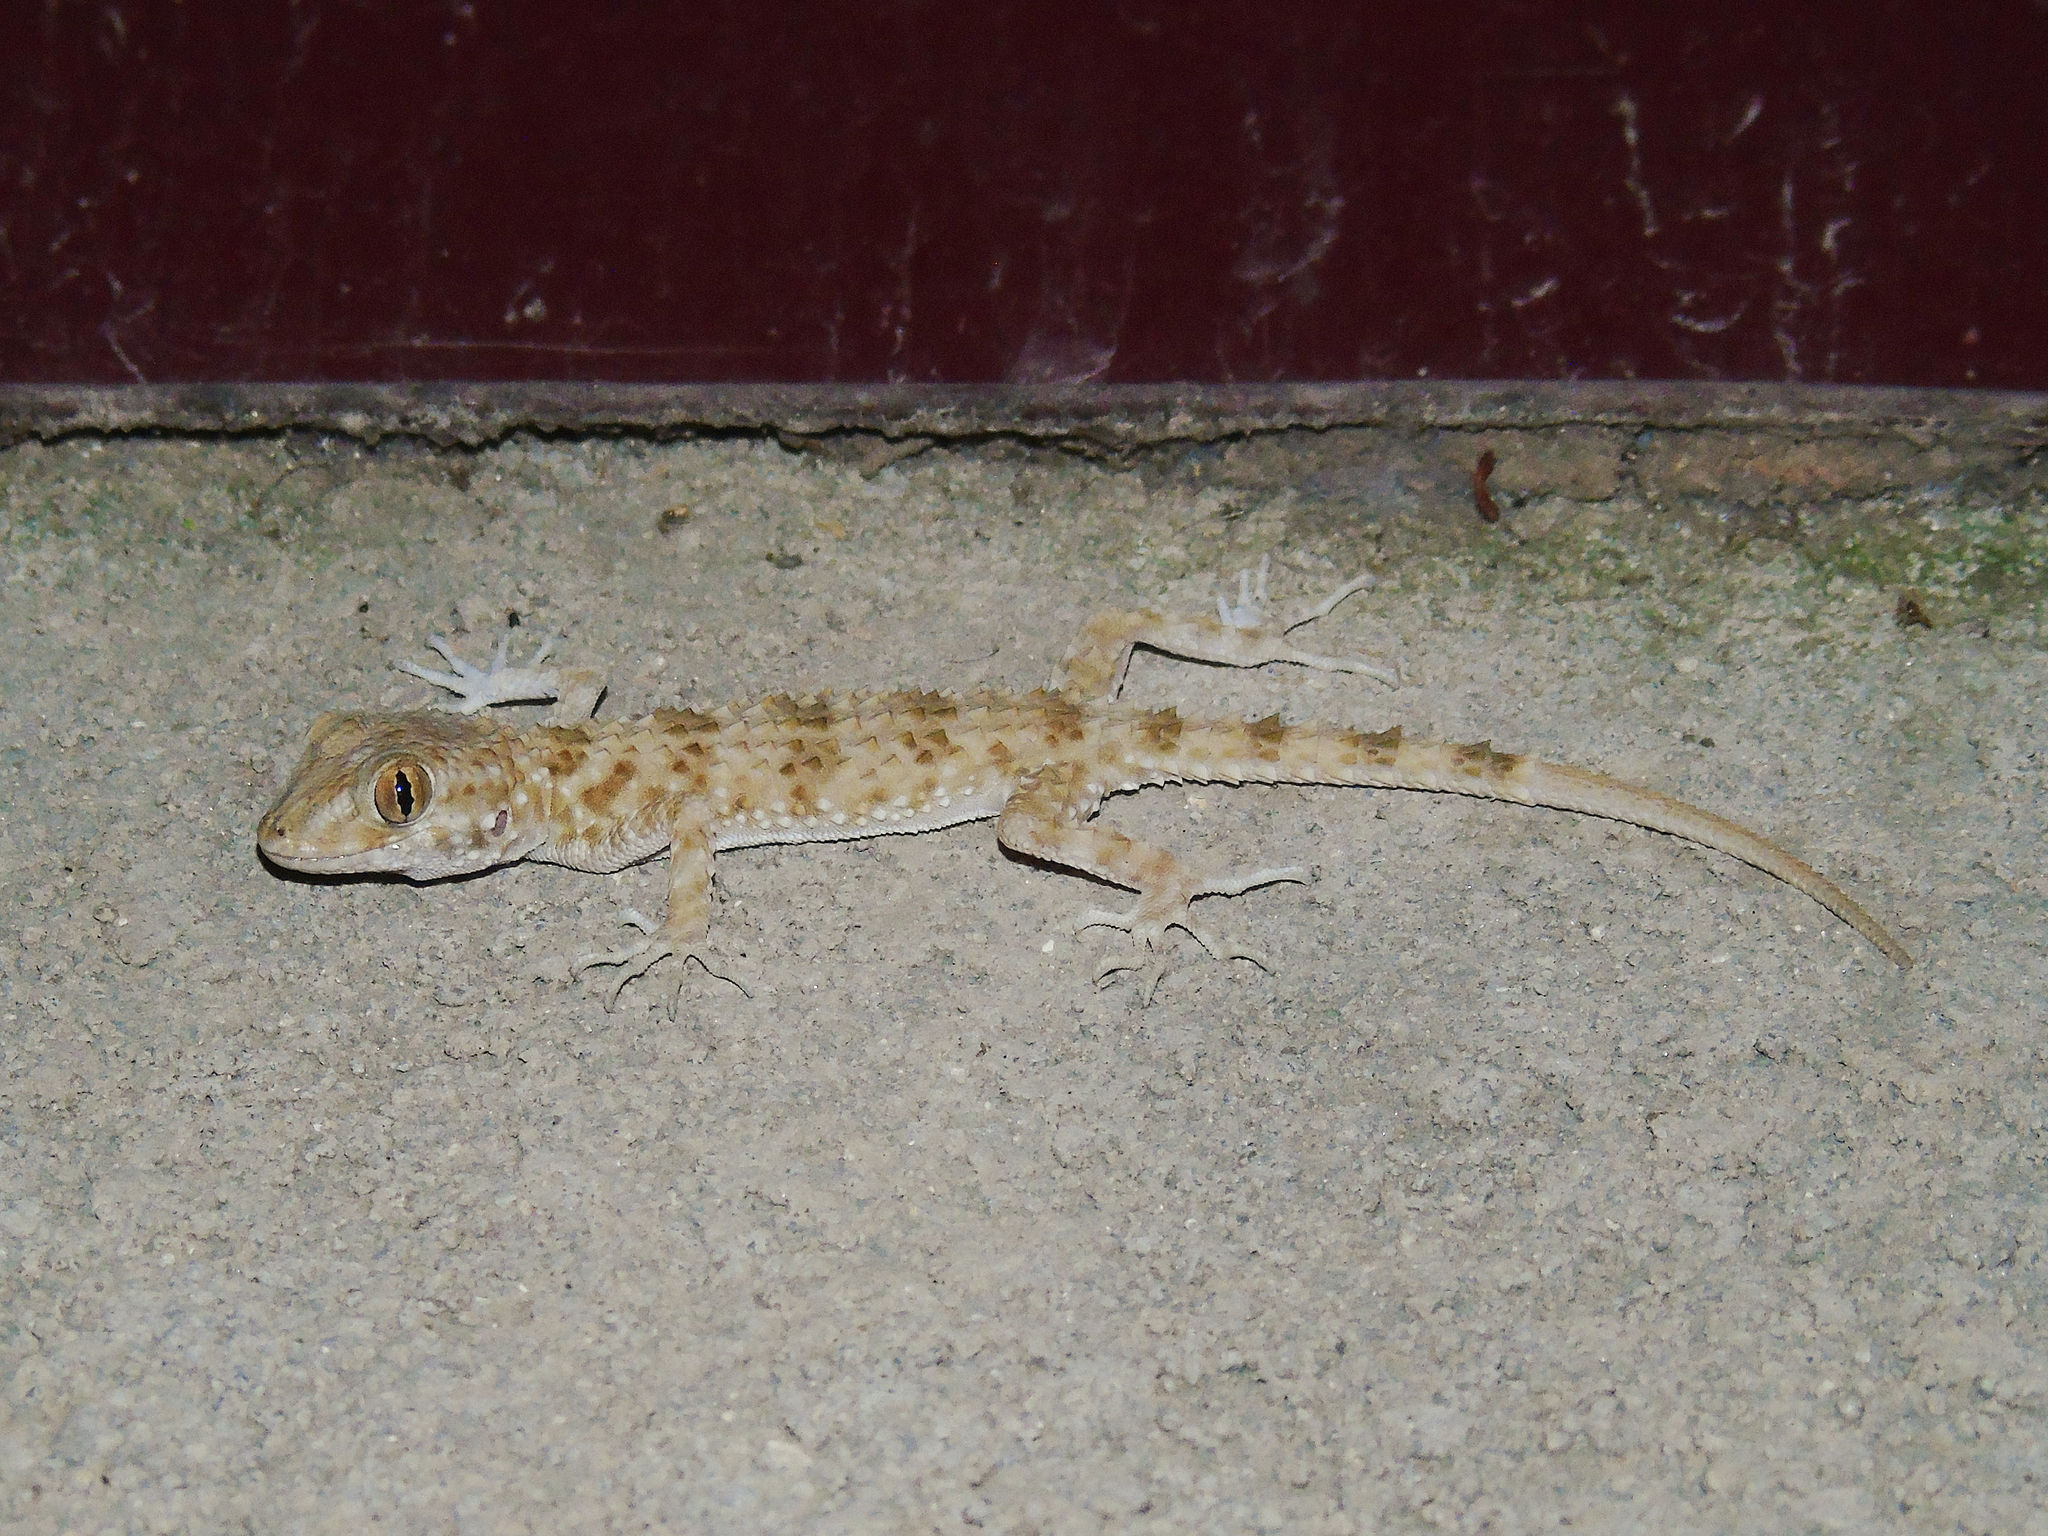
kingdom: Animalia
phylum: Chordata
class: Squamata
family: Gekkonidae
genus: Tenuidactylus
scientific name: Tenuidactylus caspius
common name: Caspian bent-toed gecko
